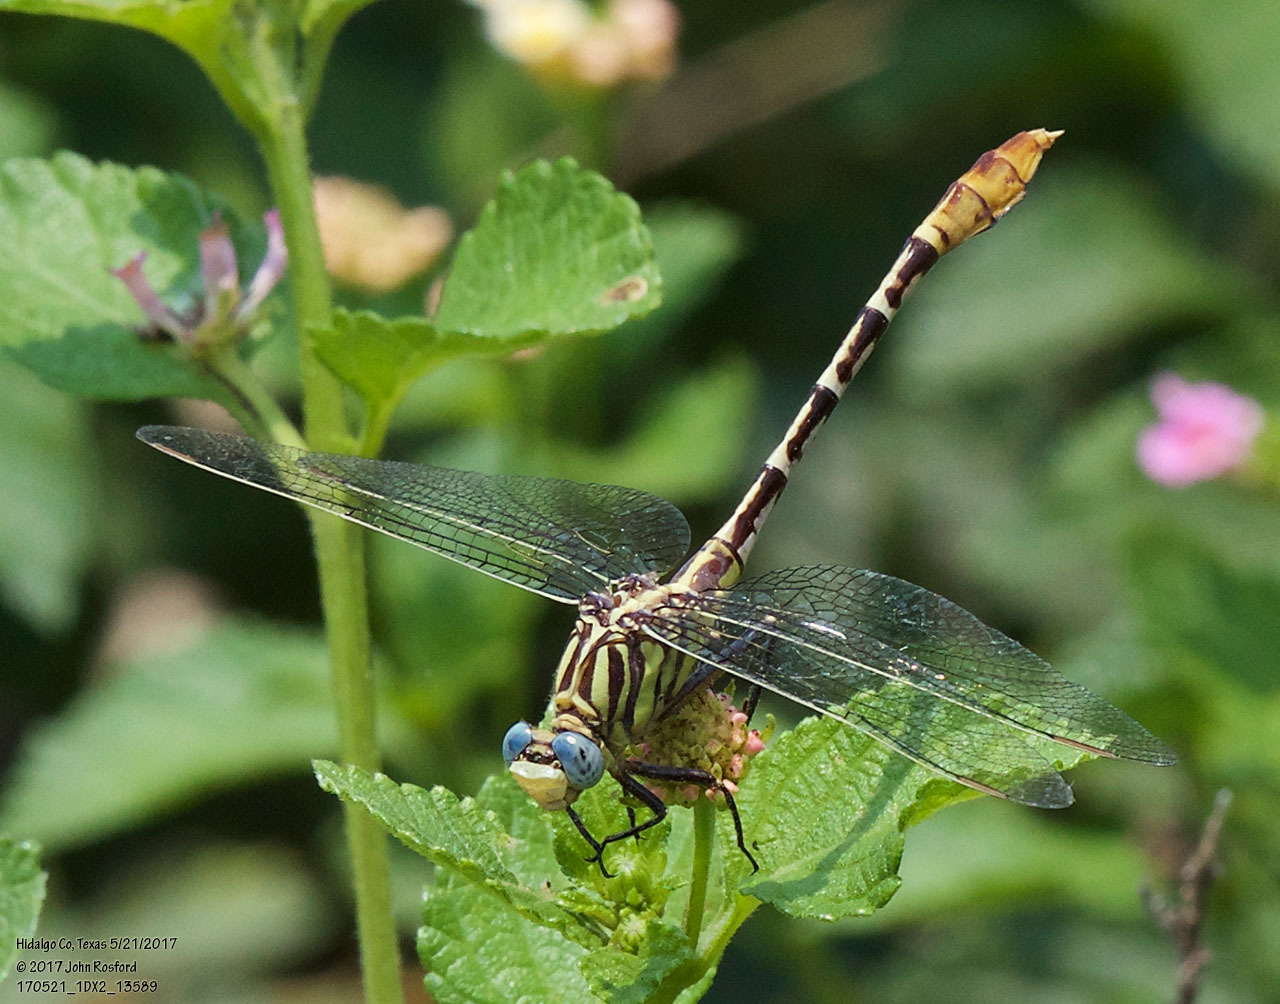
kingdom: Animalia
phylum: Arthropoda
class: Insecta
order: Odonata
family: Gomphidae
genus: Dromogomphus
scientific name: Dromogomphus spoliatus
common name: Flag-tailed spinyleg
